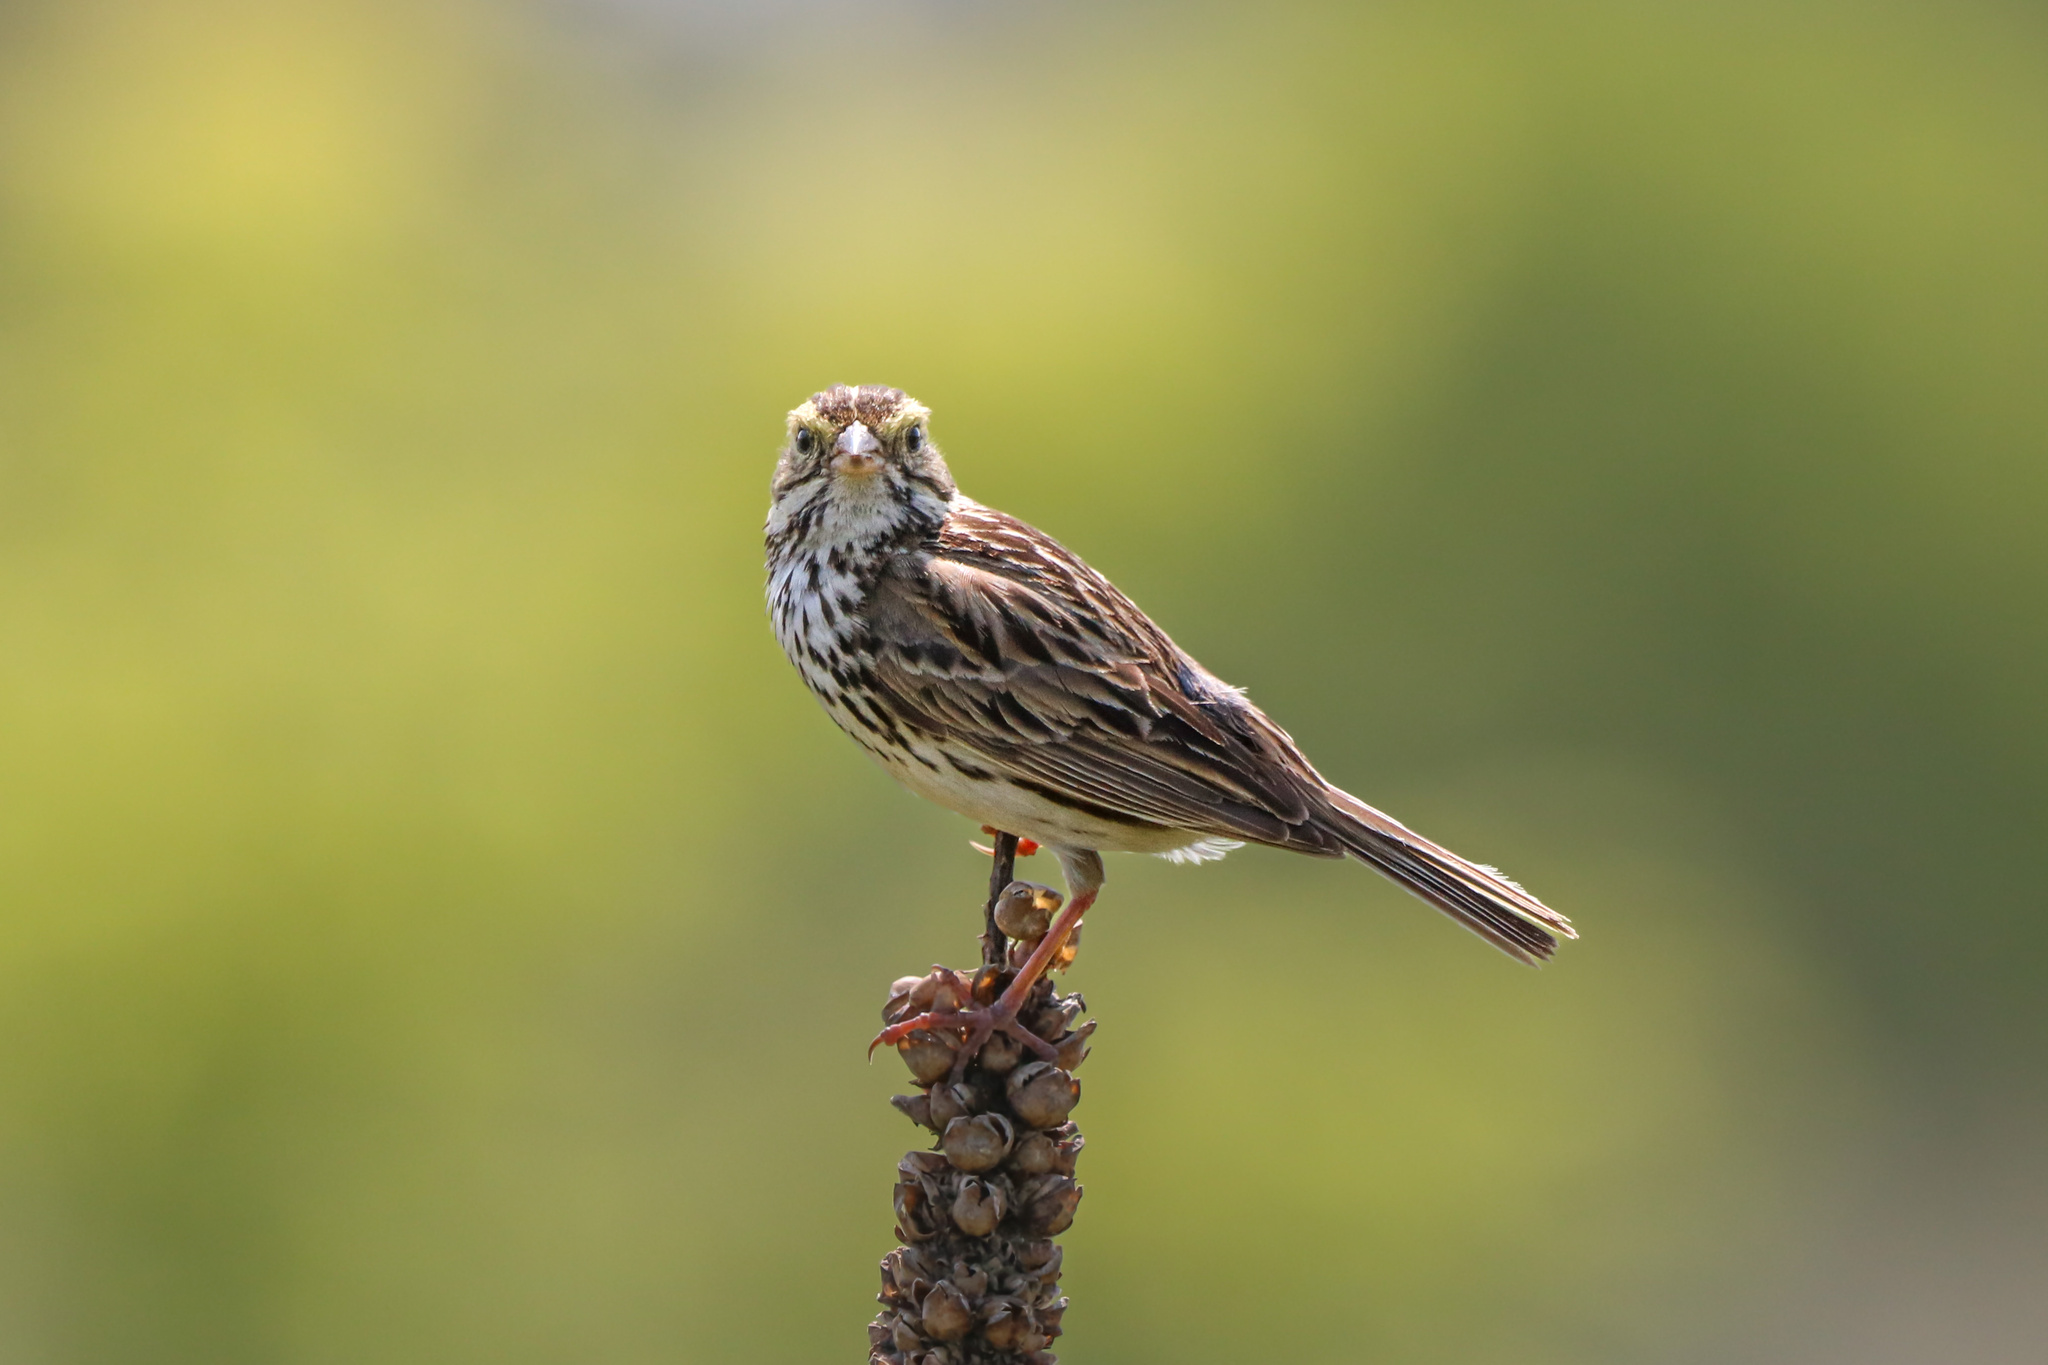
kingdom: Animalia
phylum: Chordata
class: Aves
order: Passeriformes
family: Passerellidae
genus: Passerculus
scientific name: Passerculus sandwichensis
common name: Savannah sparrow
